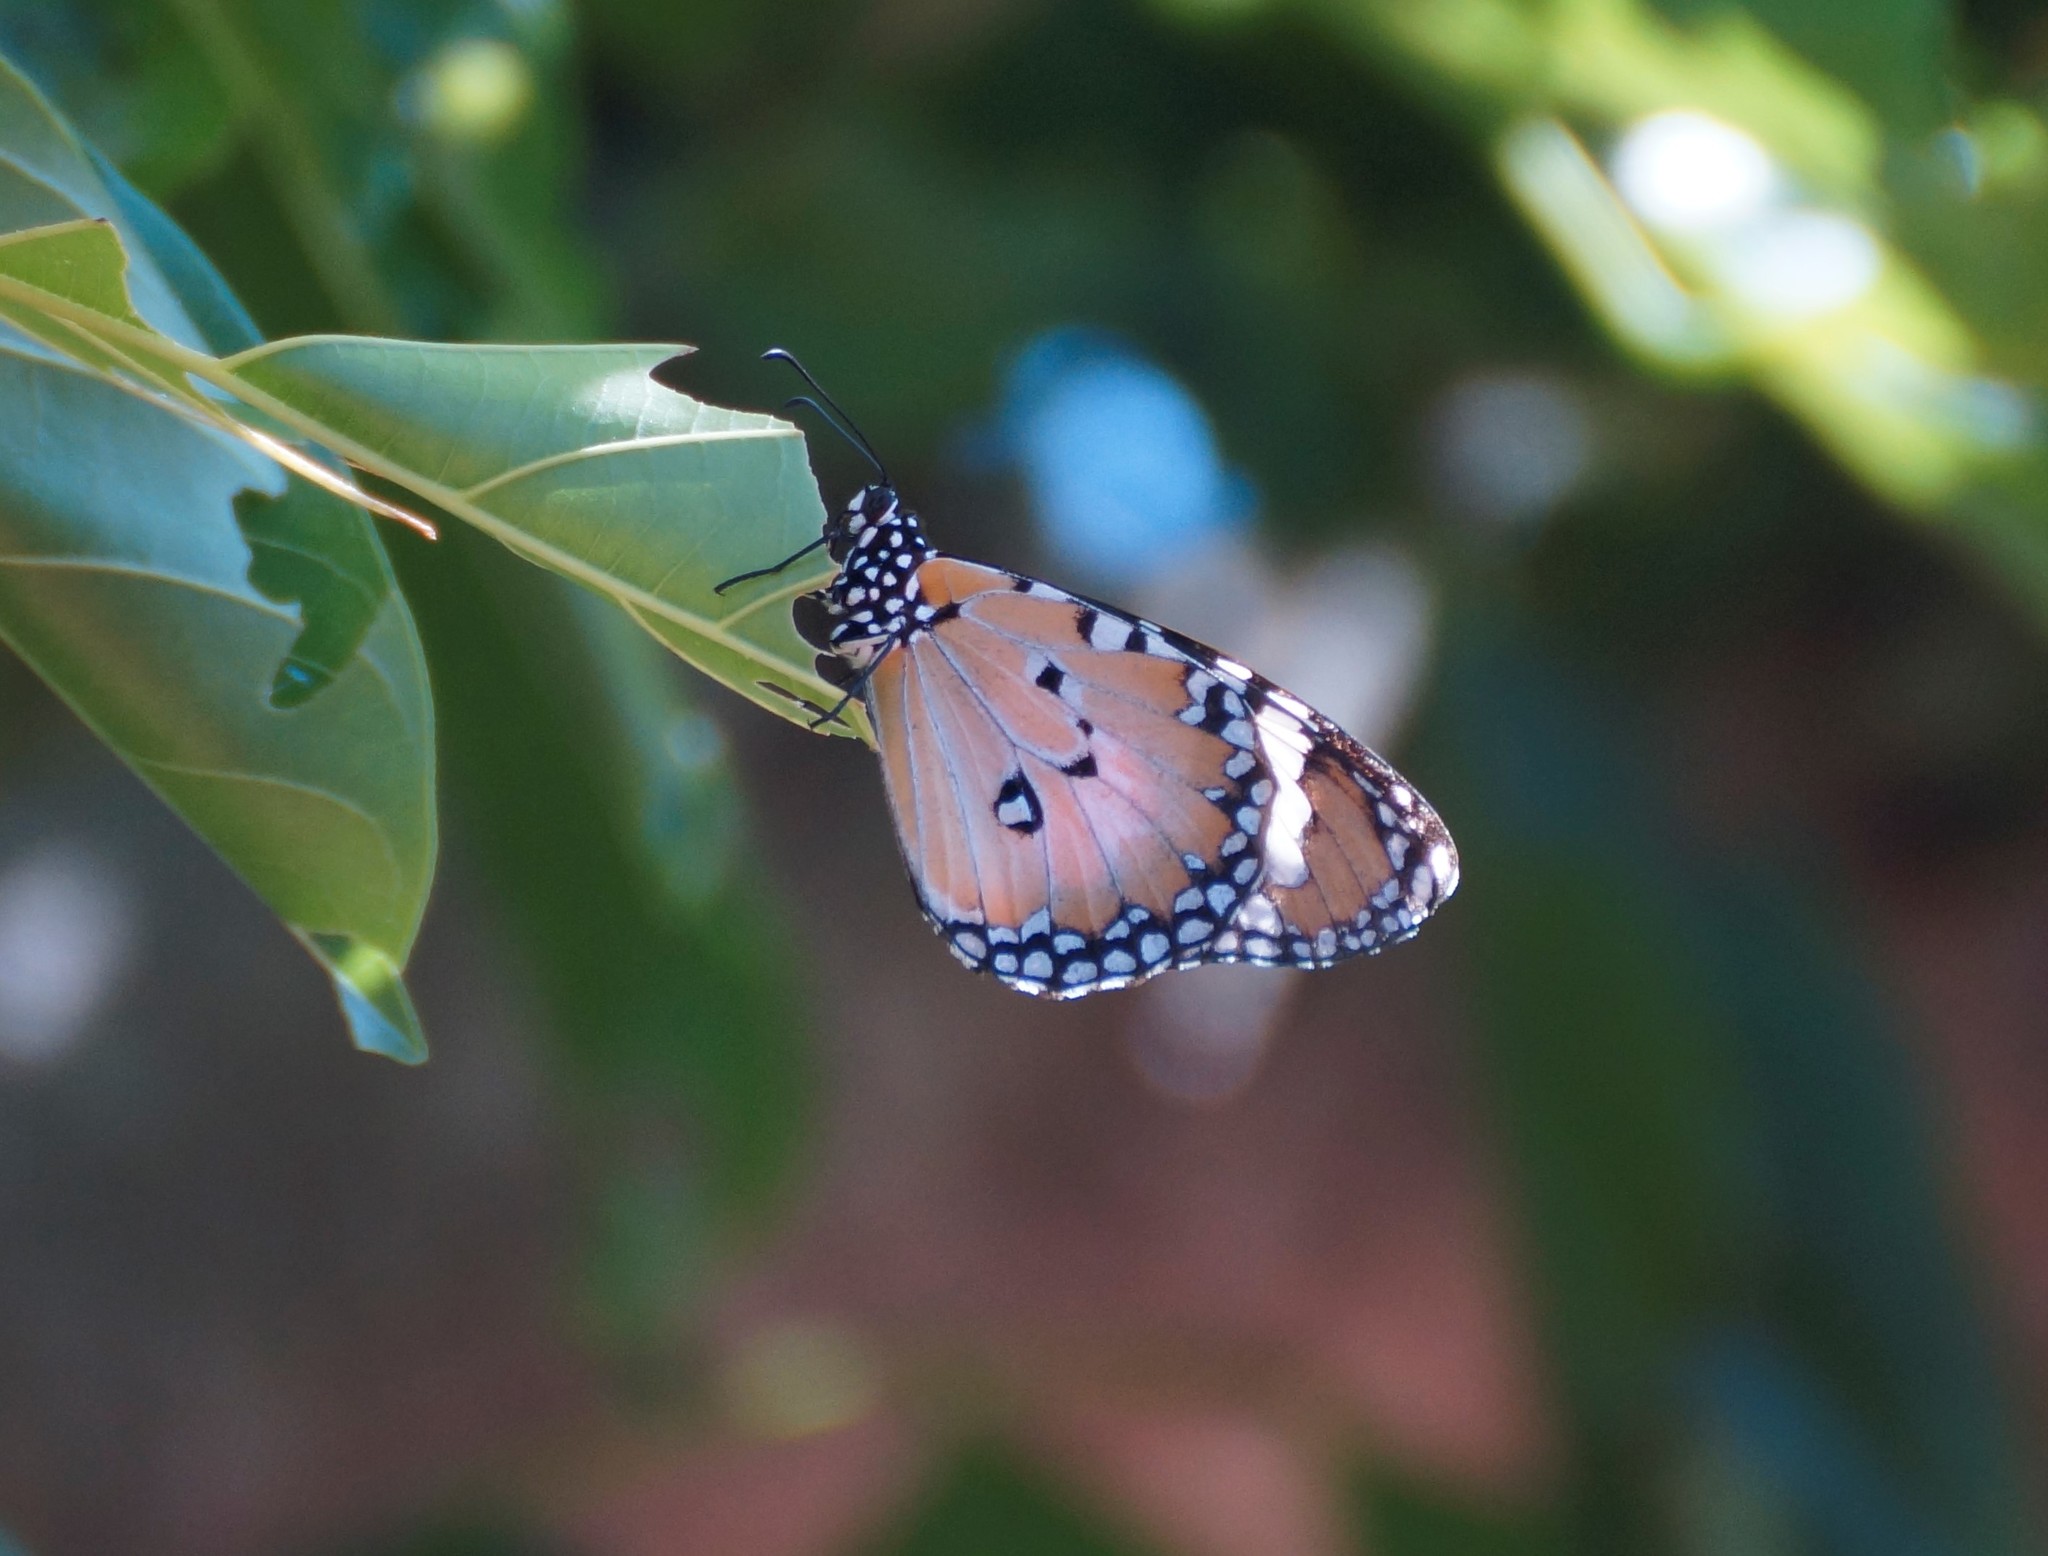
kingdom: Animalia
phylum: Arthropoda
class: Insecta
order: Lepidoptera
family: Nymphalidae
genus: Danaus
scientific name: Danaus chrysippus
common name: Plain tiger
